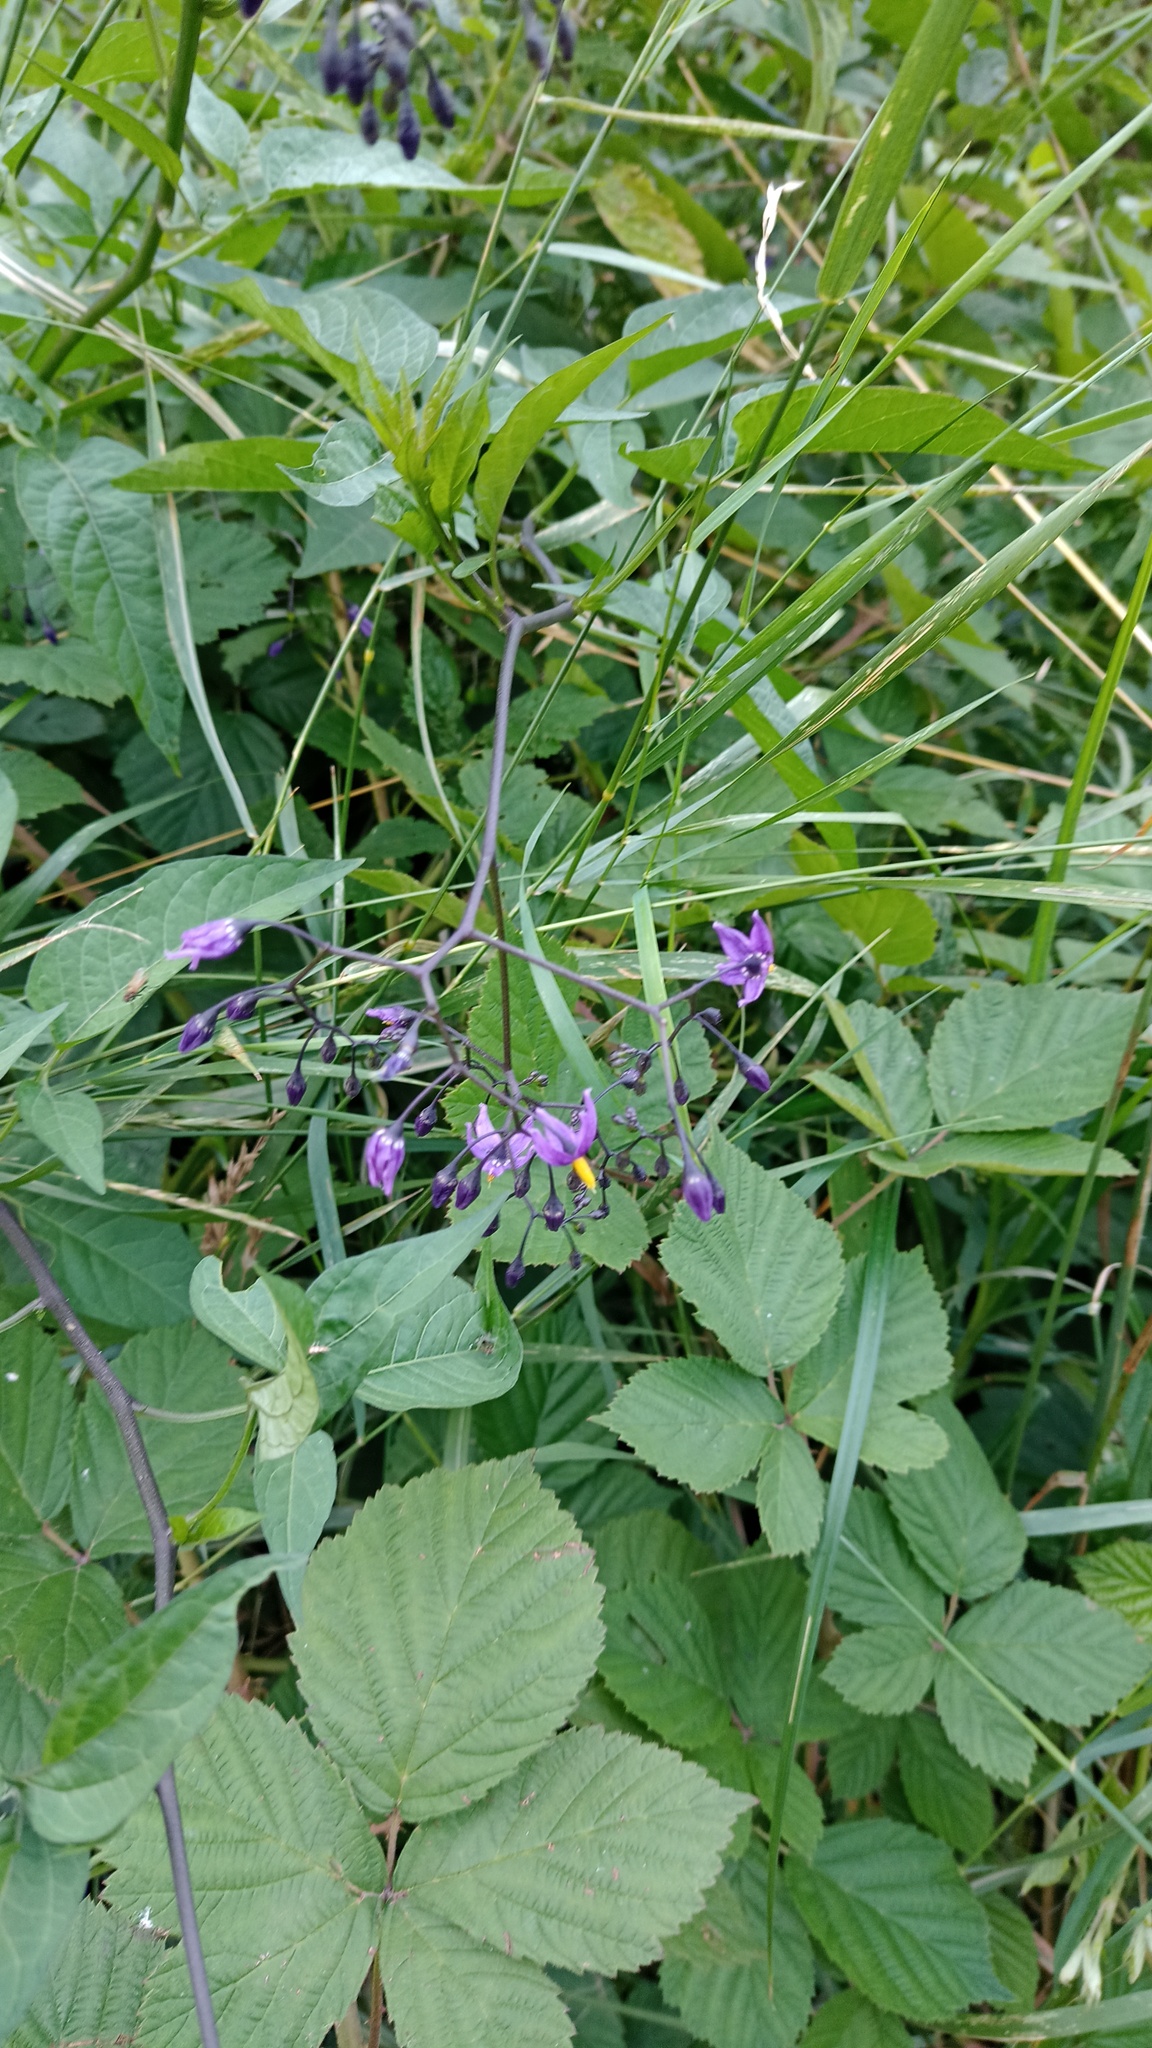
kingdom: Plantae
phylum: Tracheophyta
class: Magnoliopsida
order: Solanales
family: Solanaceae
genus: Solanum
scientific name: Solanum dulcamara
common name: Climbing nightshade
